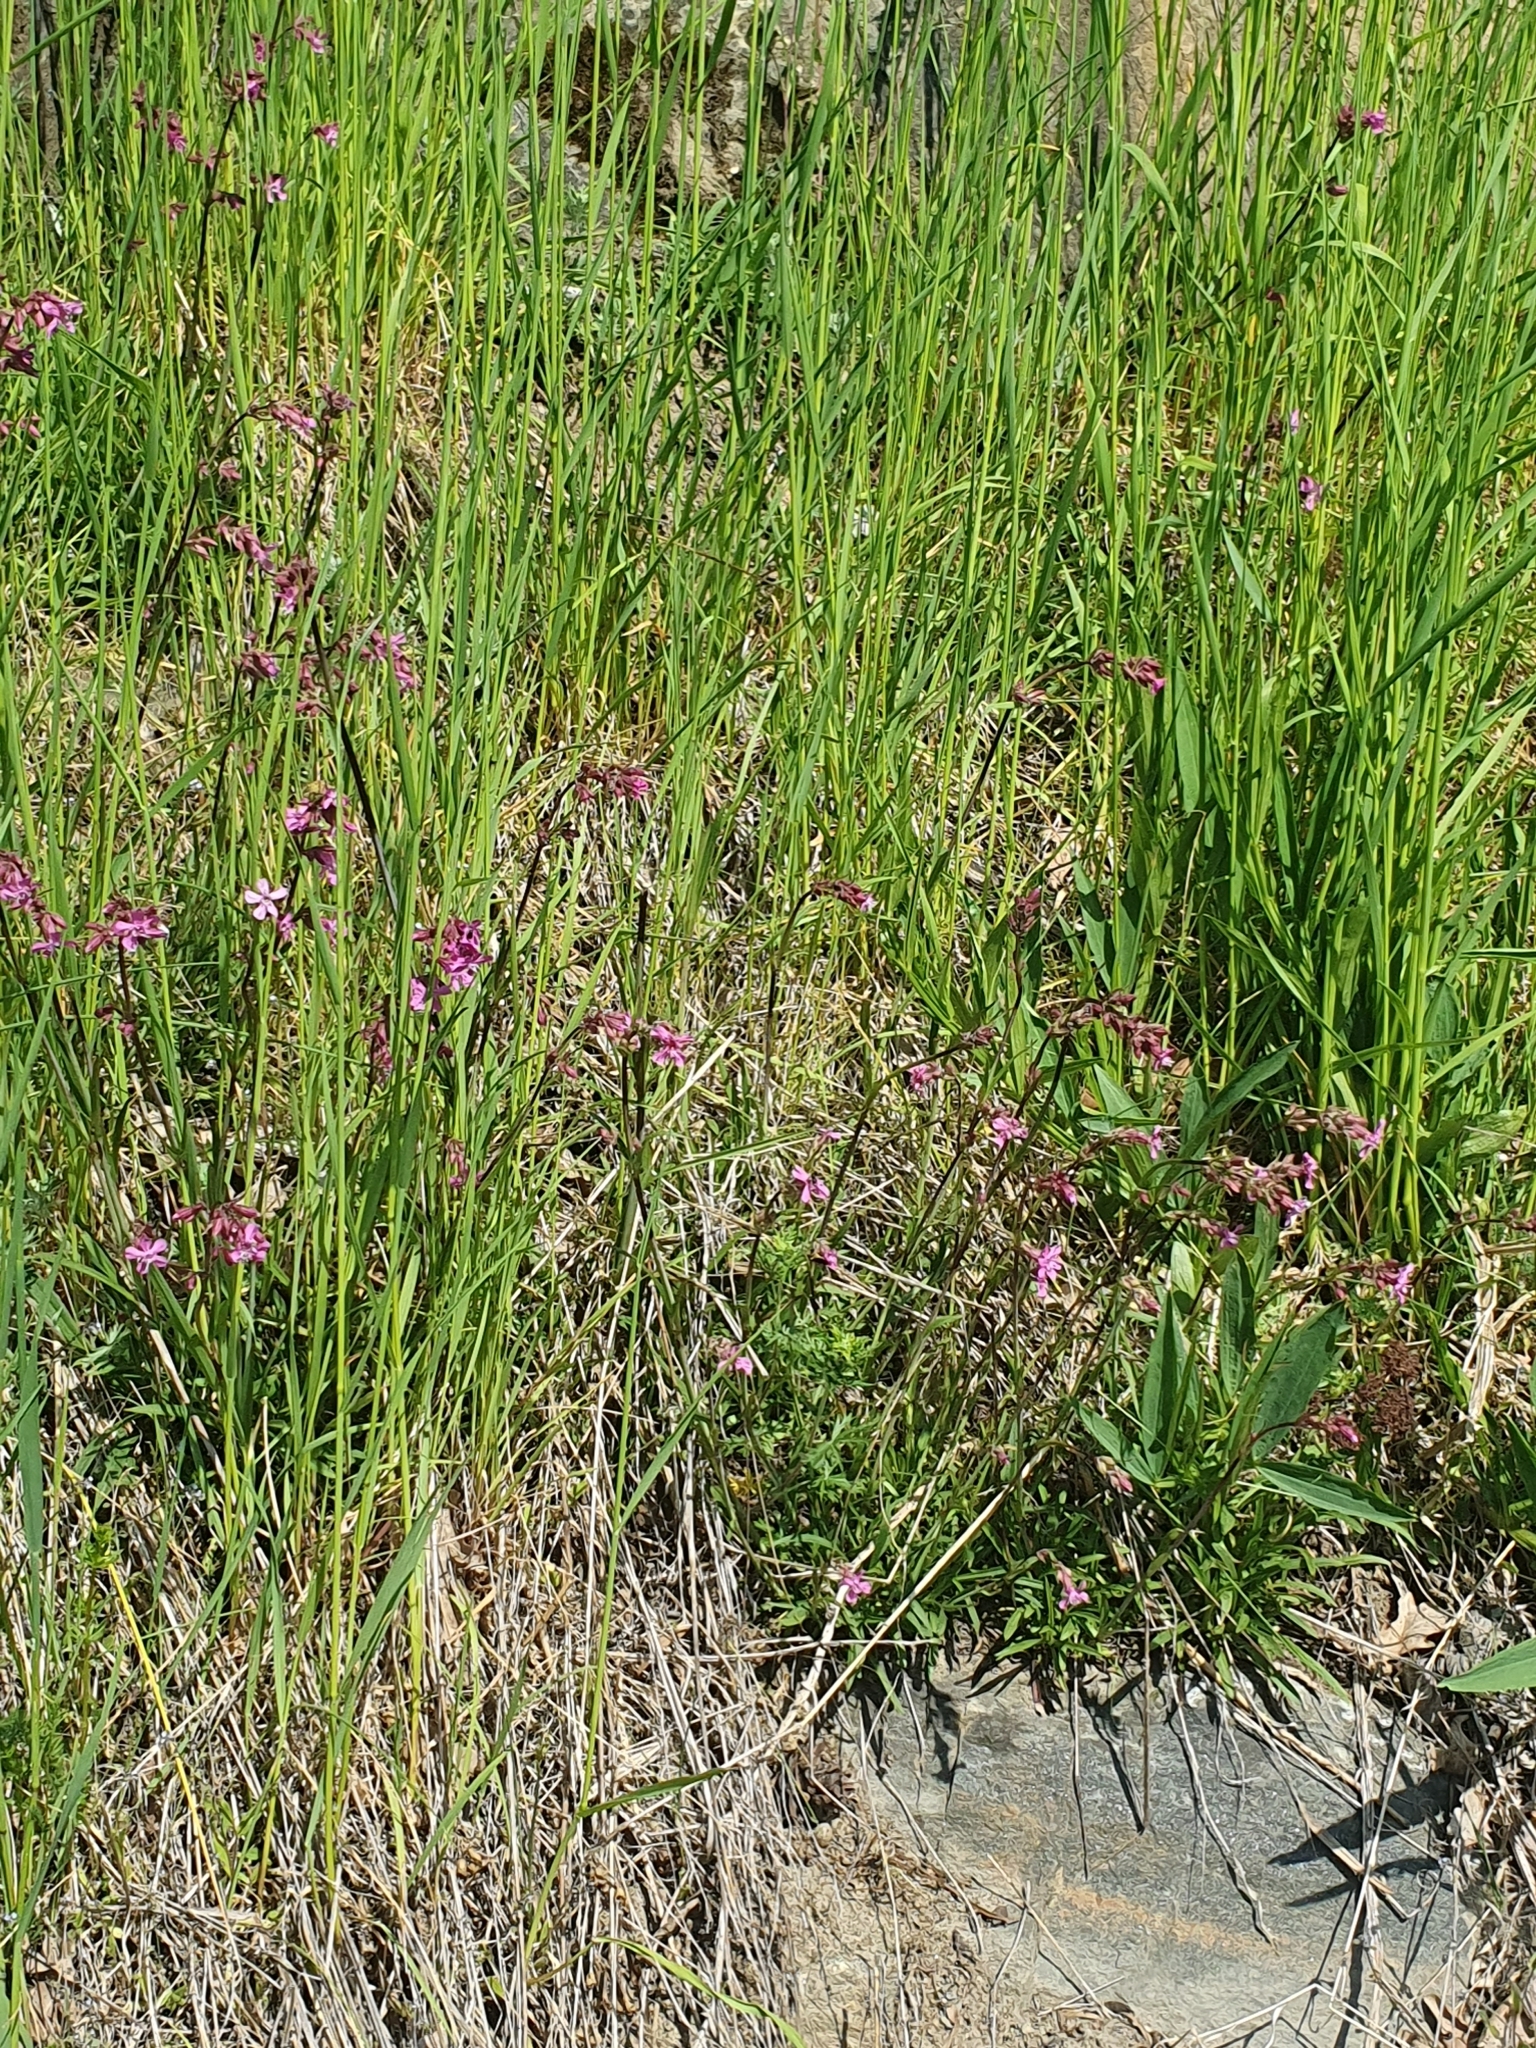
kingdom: Plantae
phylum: Tracheophyta
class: Magnoliopsida
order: Caryophyllales
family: Caryophyllaceae
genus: Viscaria
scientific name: Viscaria vulgaris
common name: Clammy campion
